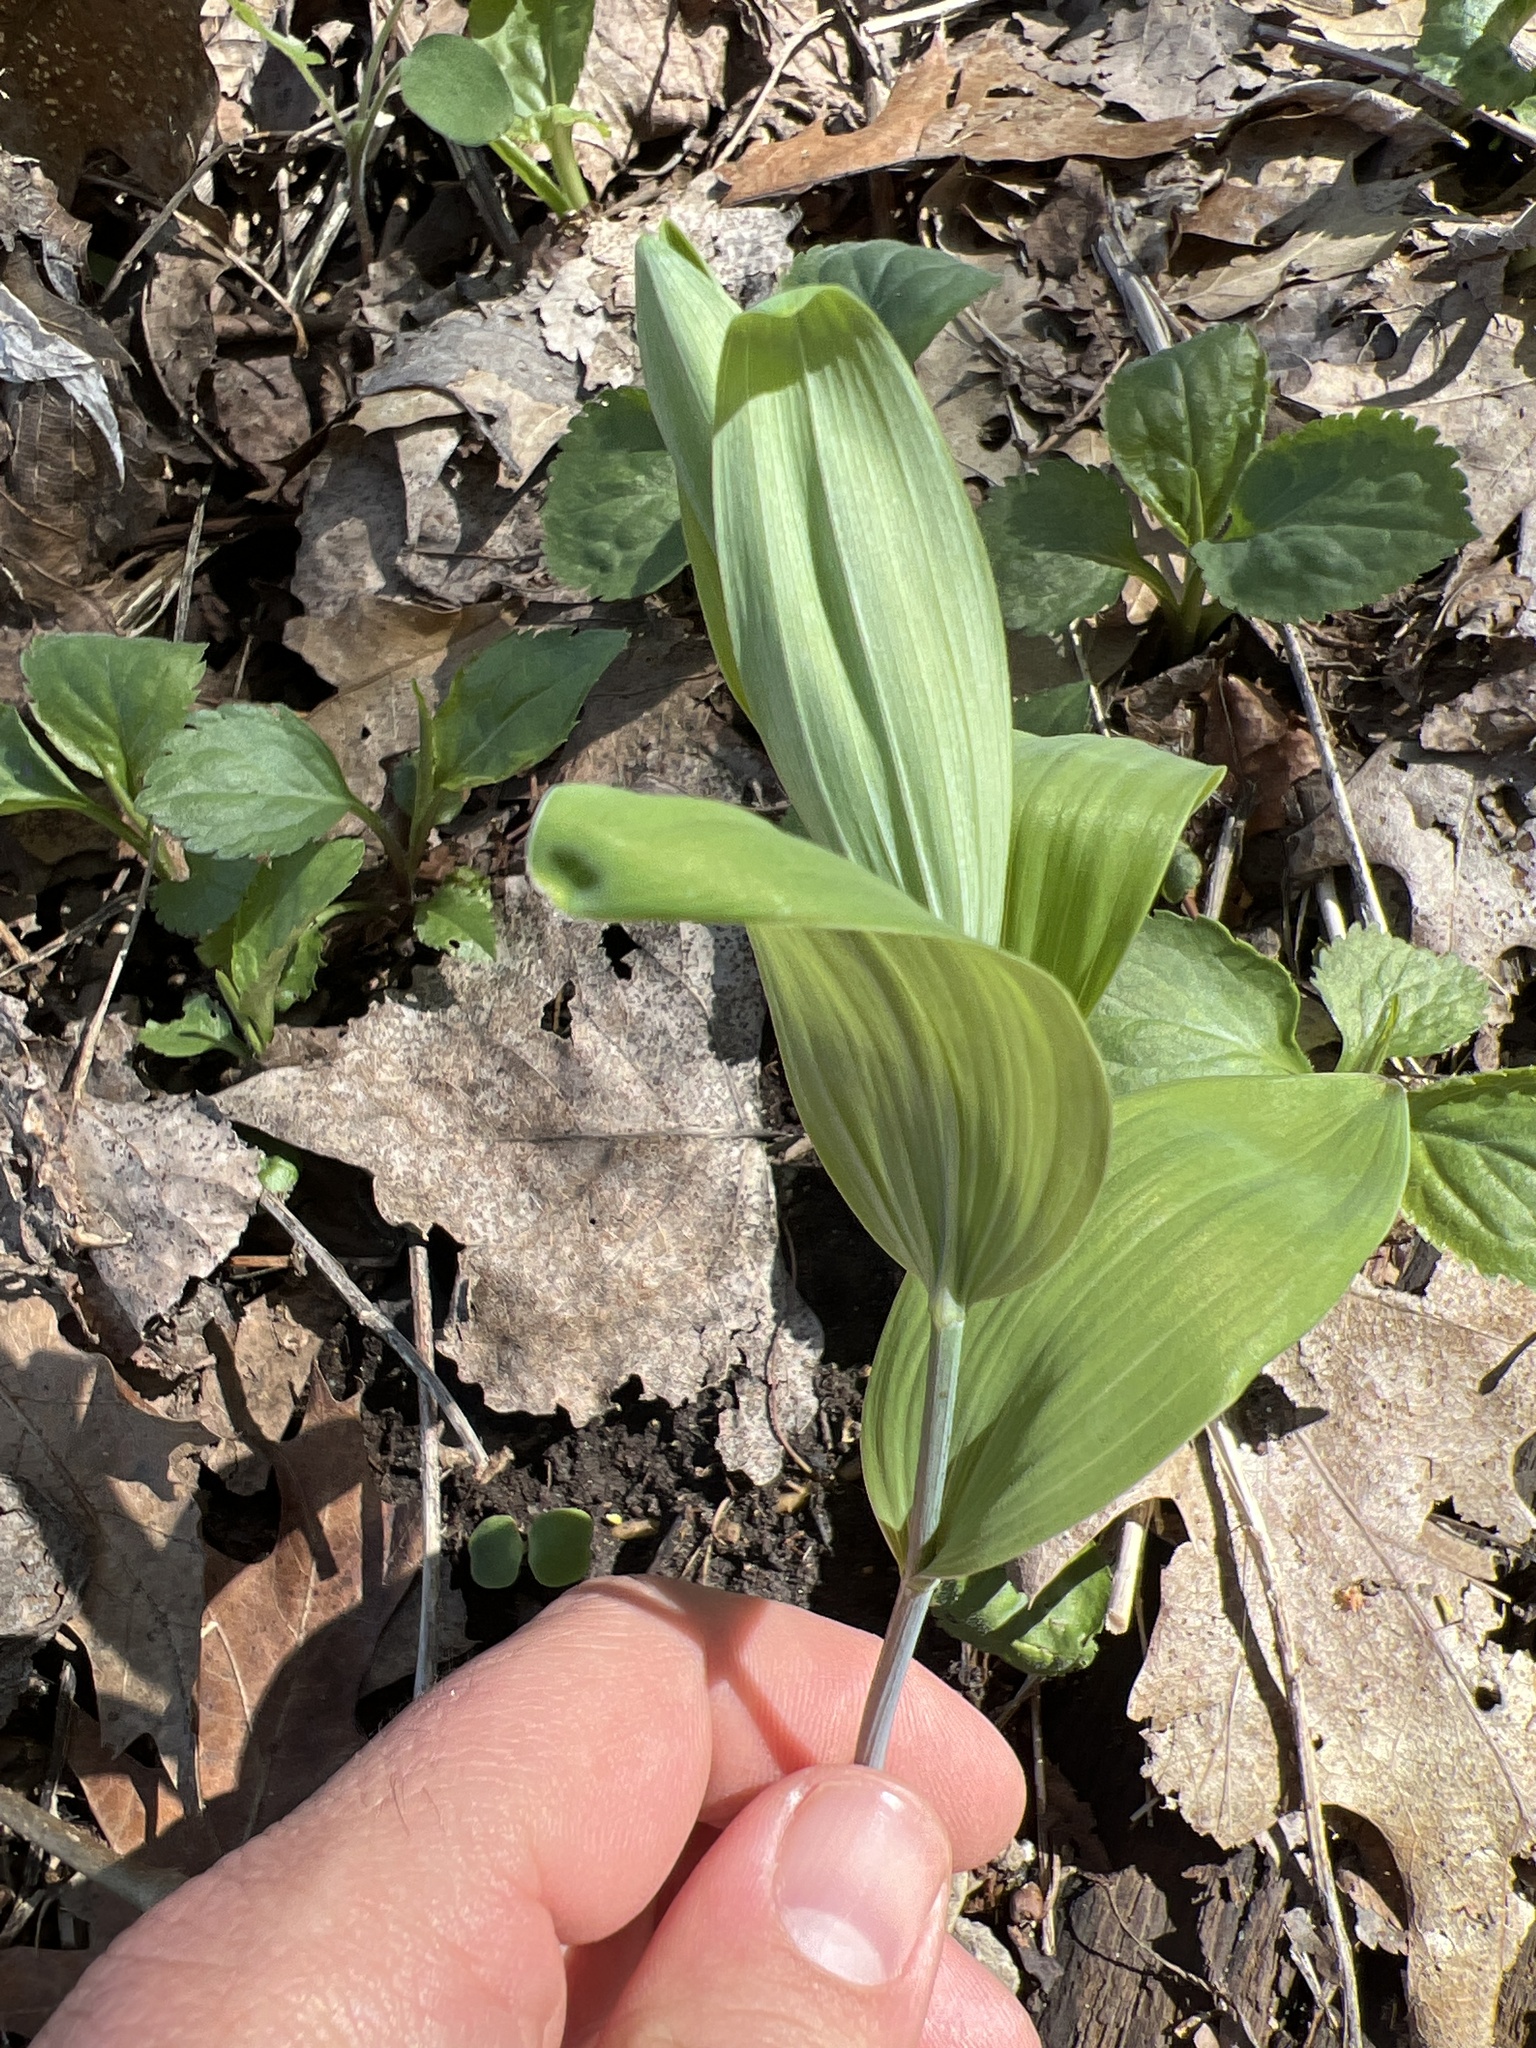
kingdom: Plantae
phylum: Tracheophyta
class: Liliopsida
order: Asparagales
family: Asparagaceae
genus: Polygonatum
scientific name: Polygonatum biflorum
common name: American solomon's-seal
